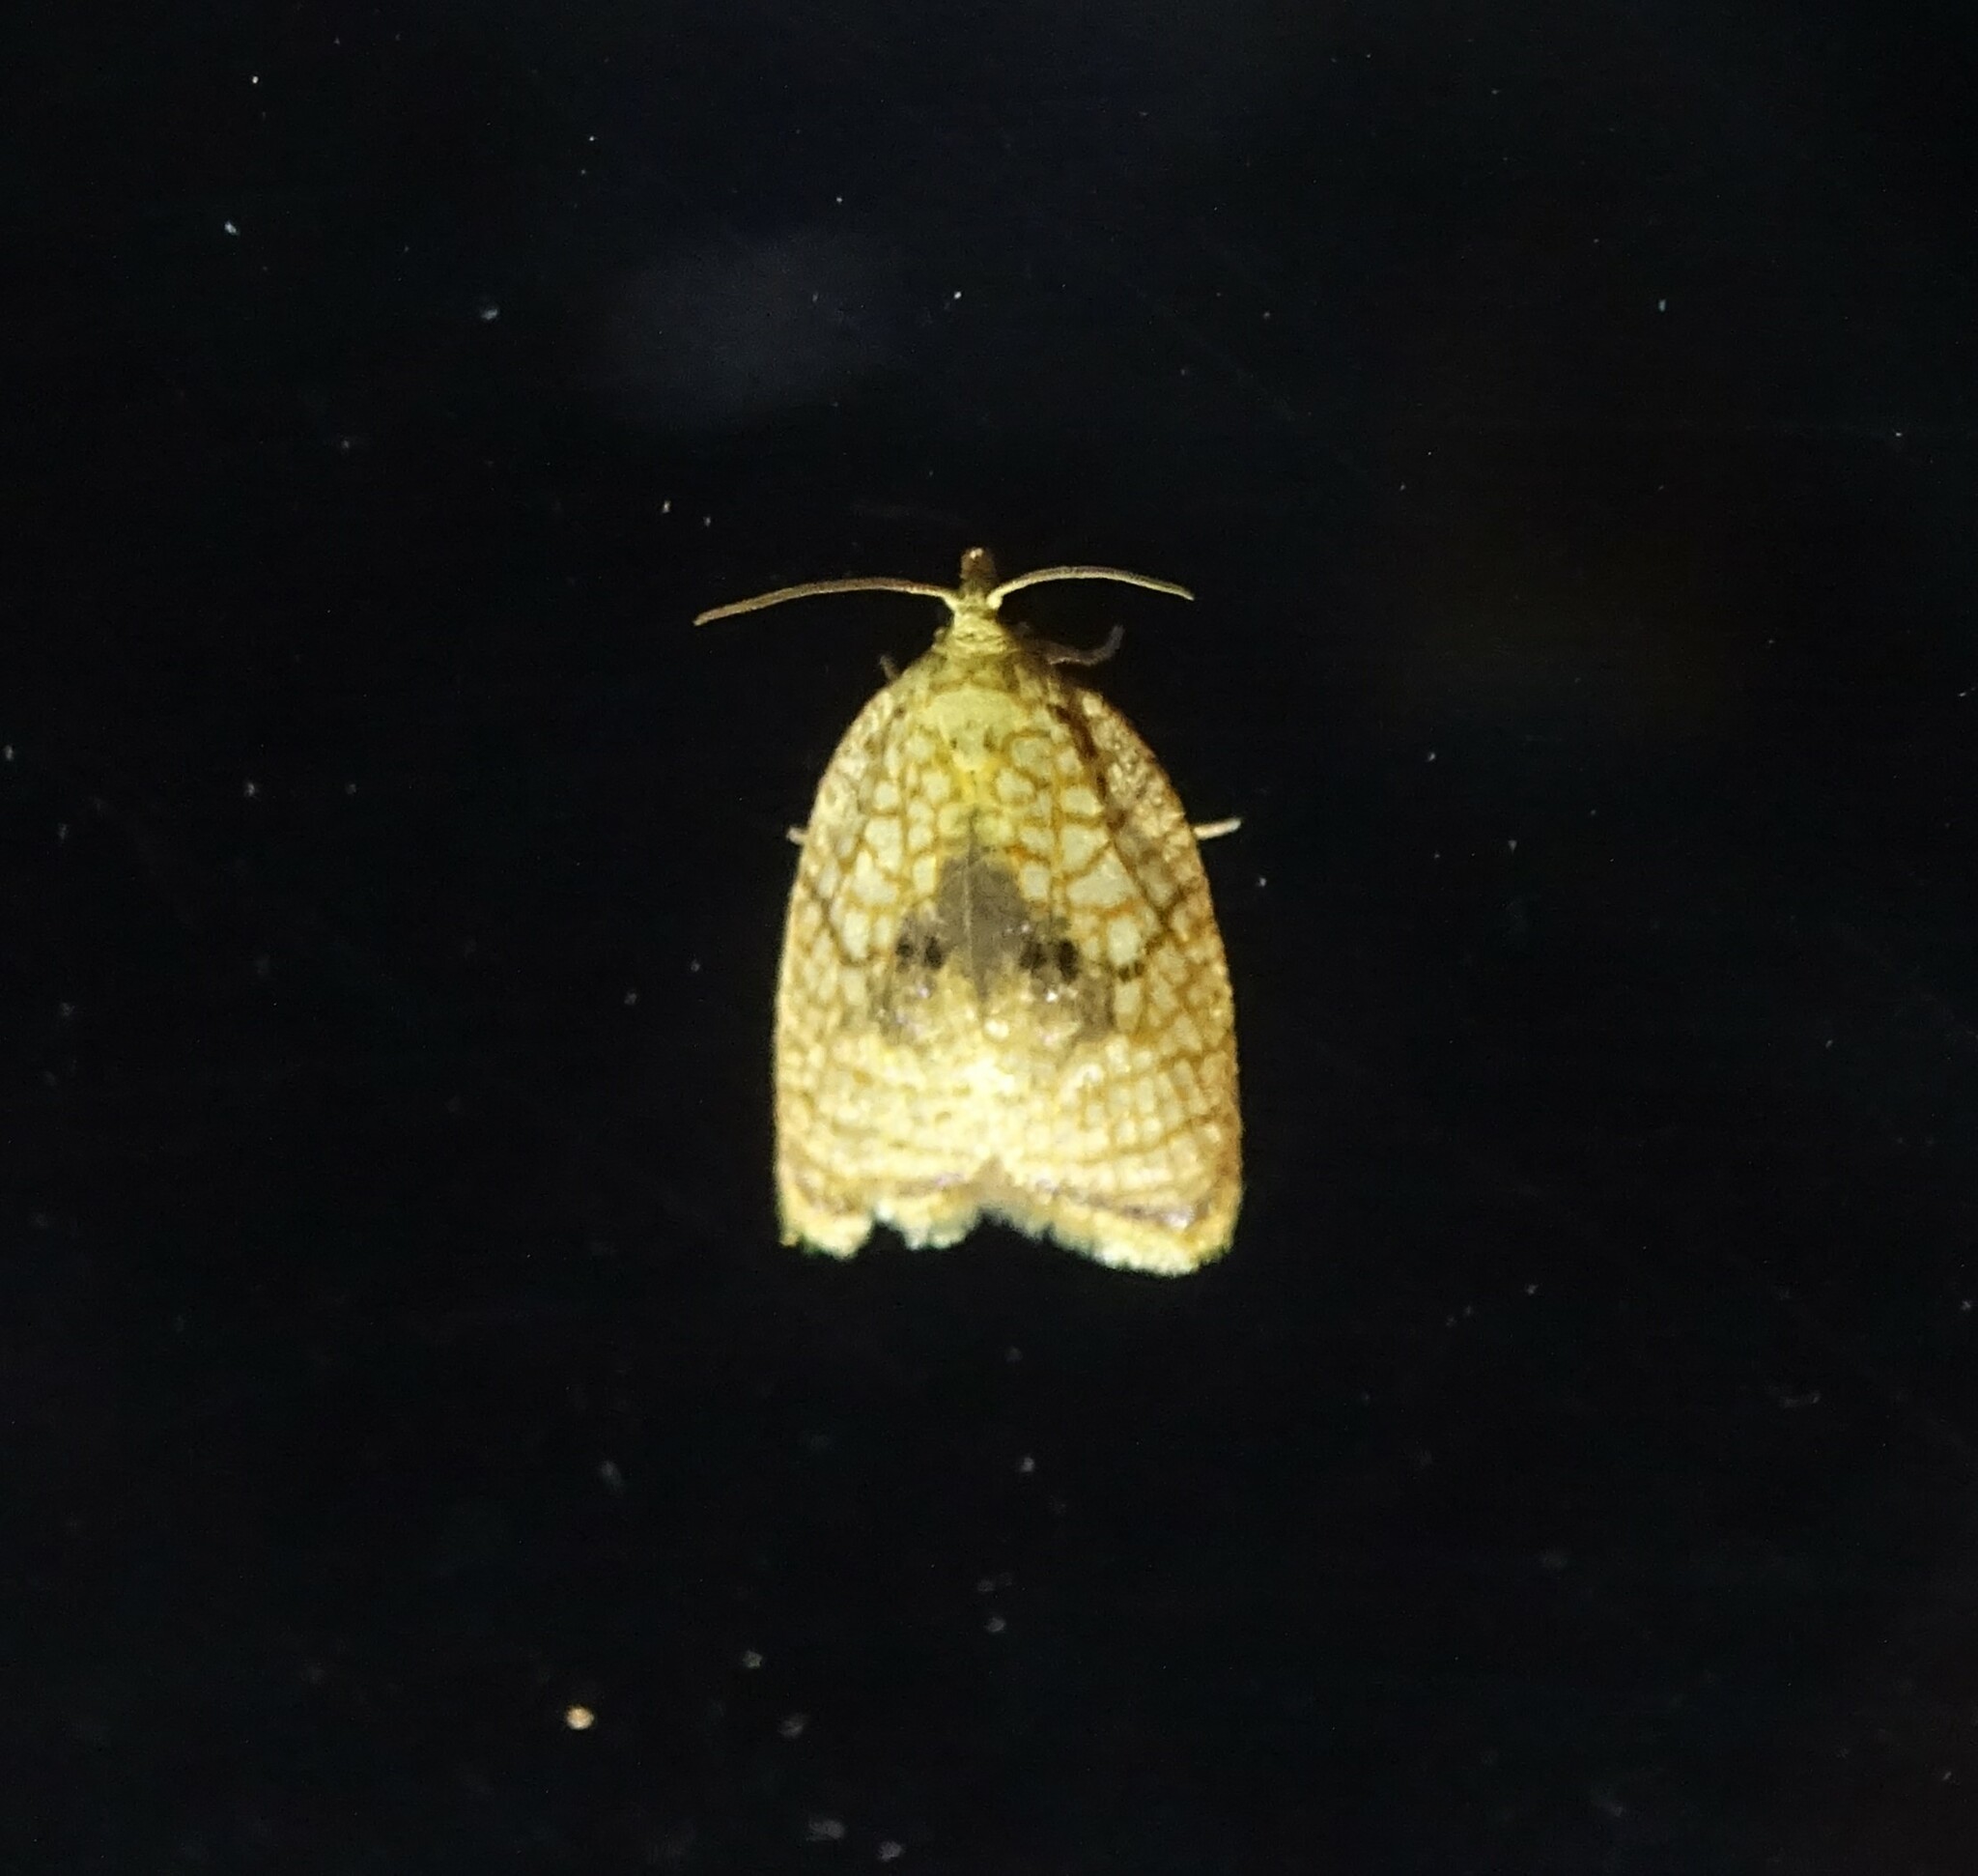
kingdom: Animalia
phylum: Arthropoda
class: Insecta
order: Lepidoptera
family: Tortricidae
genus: Acleris
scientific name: Acleris forsskaleana
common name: Maple button
